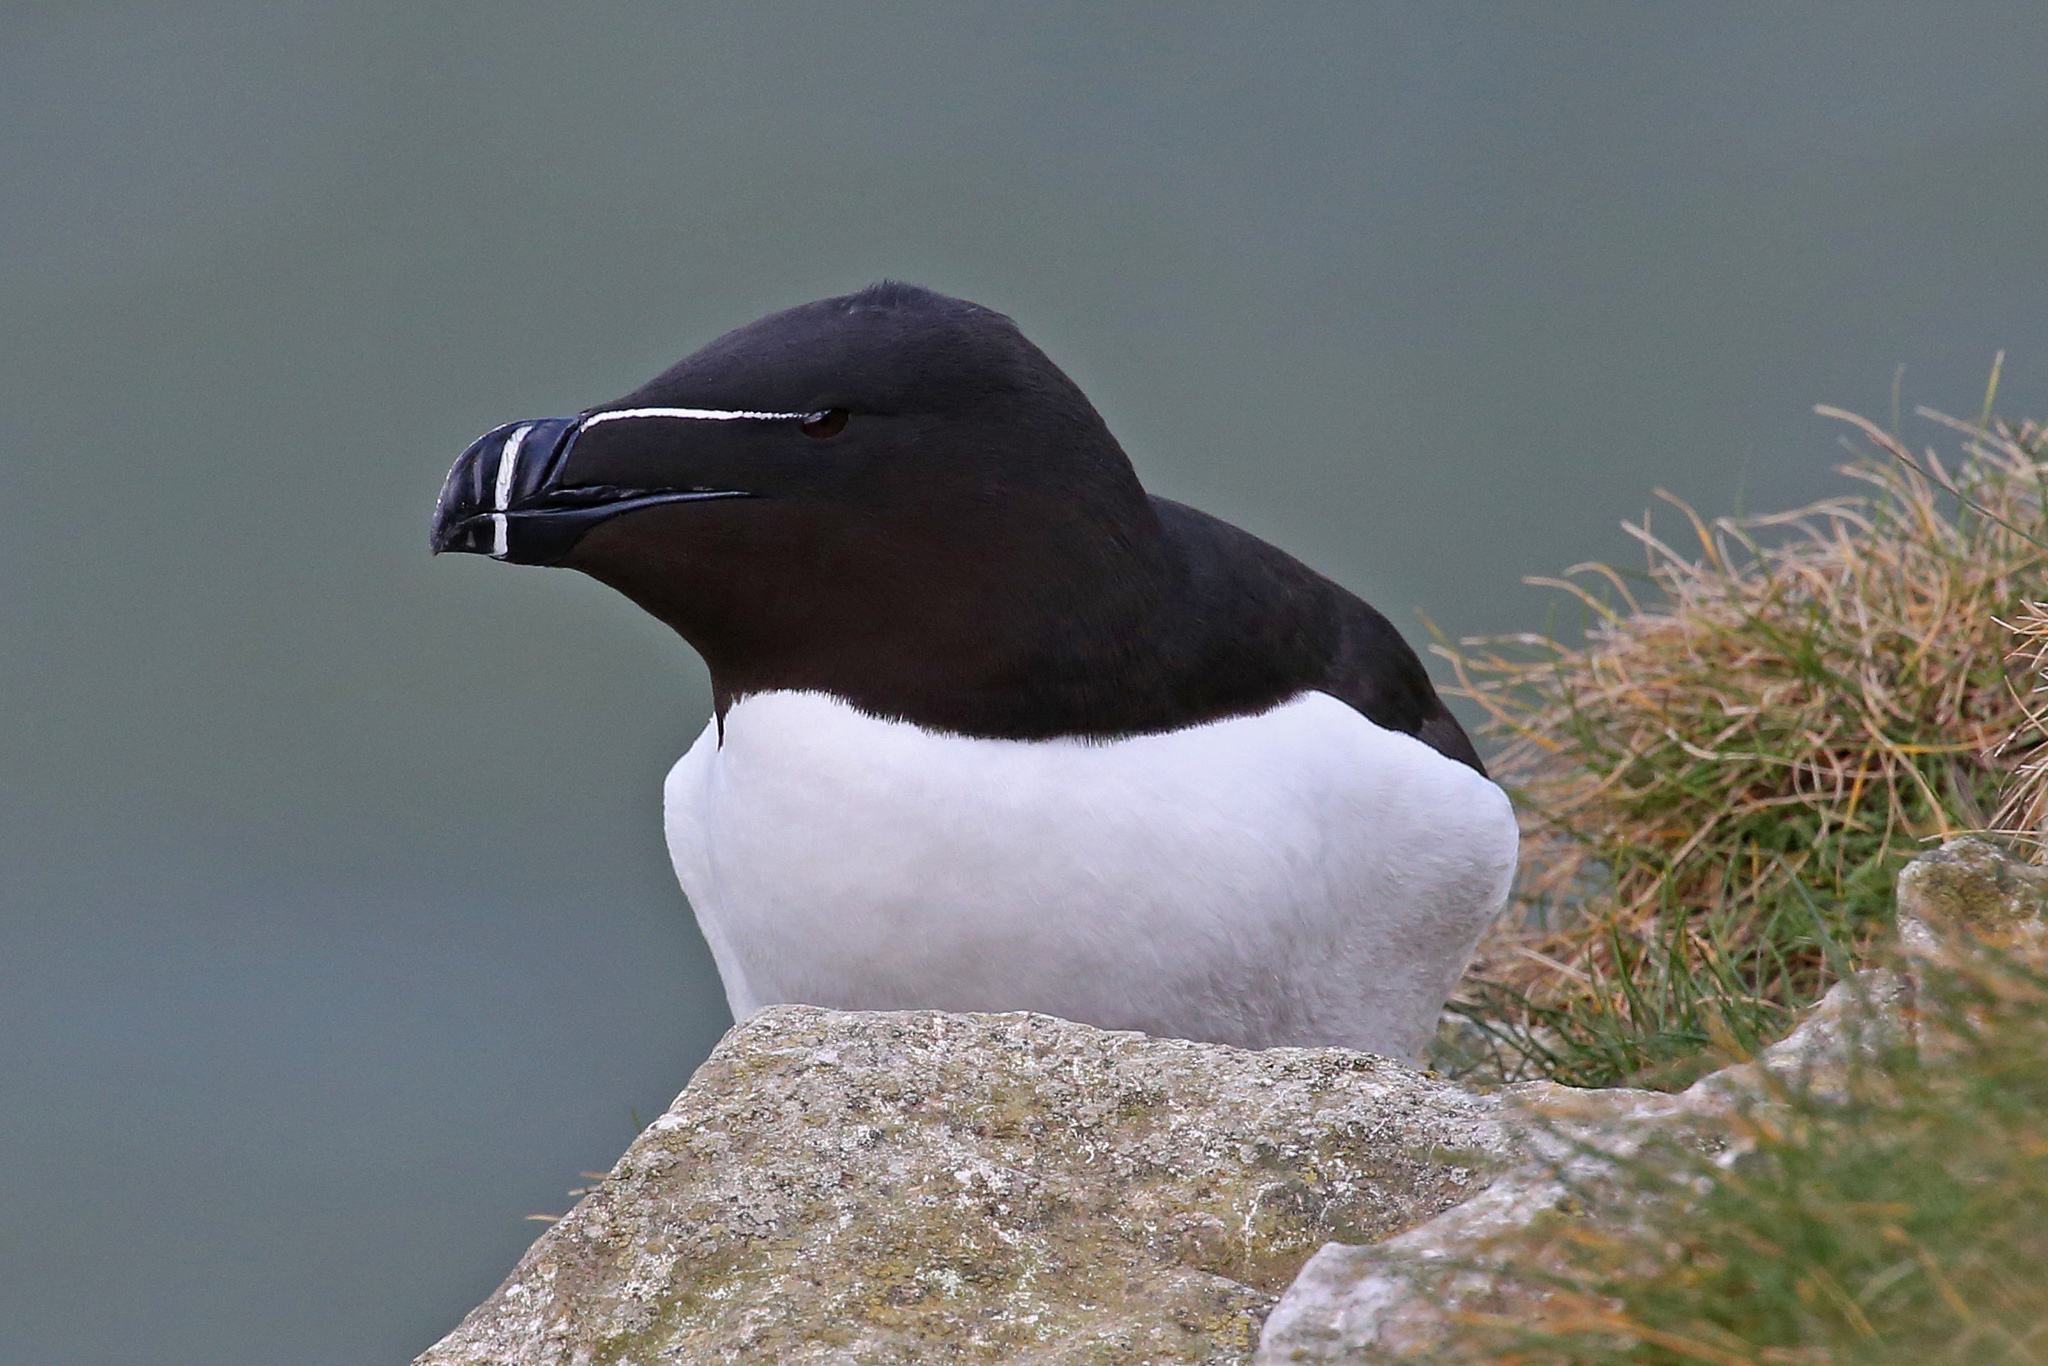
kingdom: Animalia
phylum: Chordata
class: Aves
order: Charadriiformes
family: Alcidae
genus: Alca
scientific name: Alca torda
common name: Razorbill
